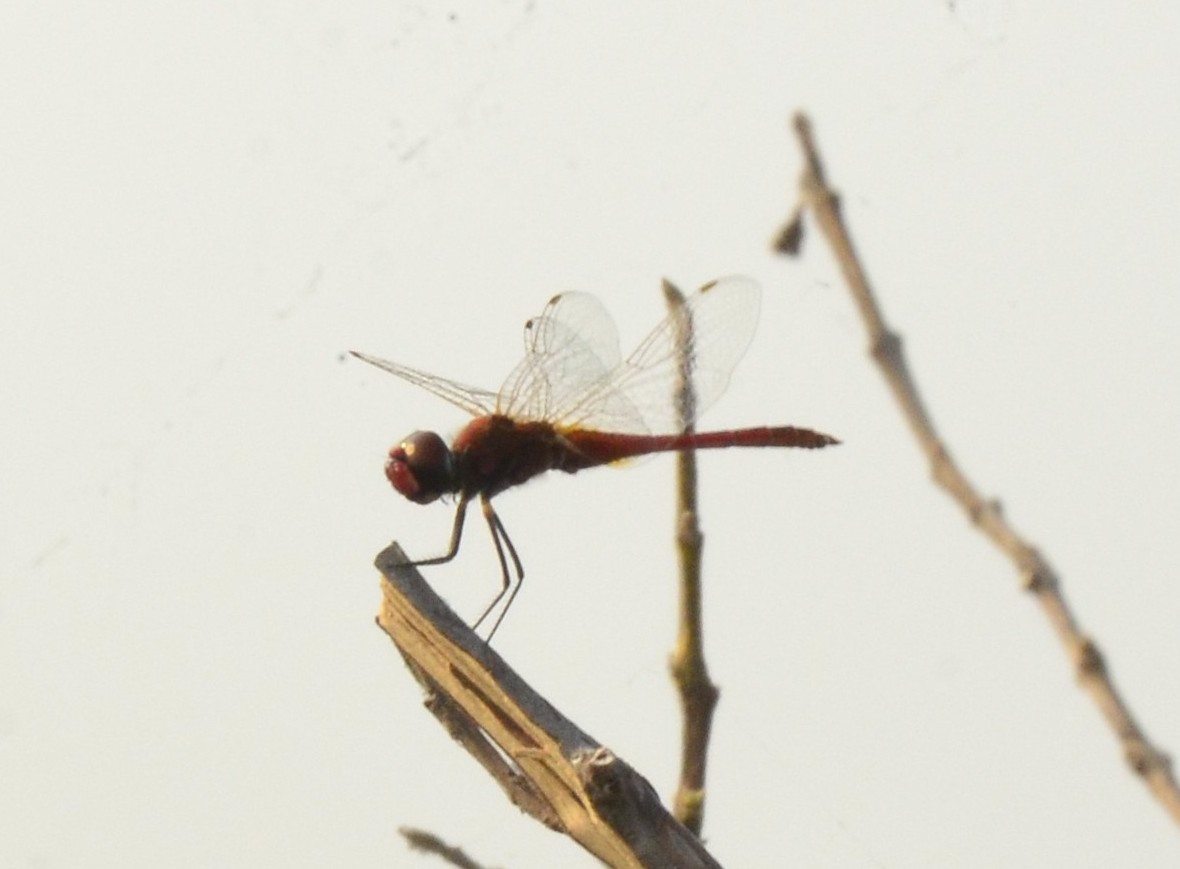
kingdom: Animalia
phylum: Arthropoda
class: Insecta
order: Odonata
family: Libellulidae
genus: Macrodiplax
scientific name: Macrodiplax cora
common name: Coastal glider
